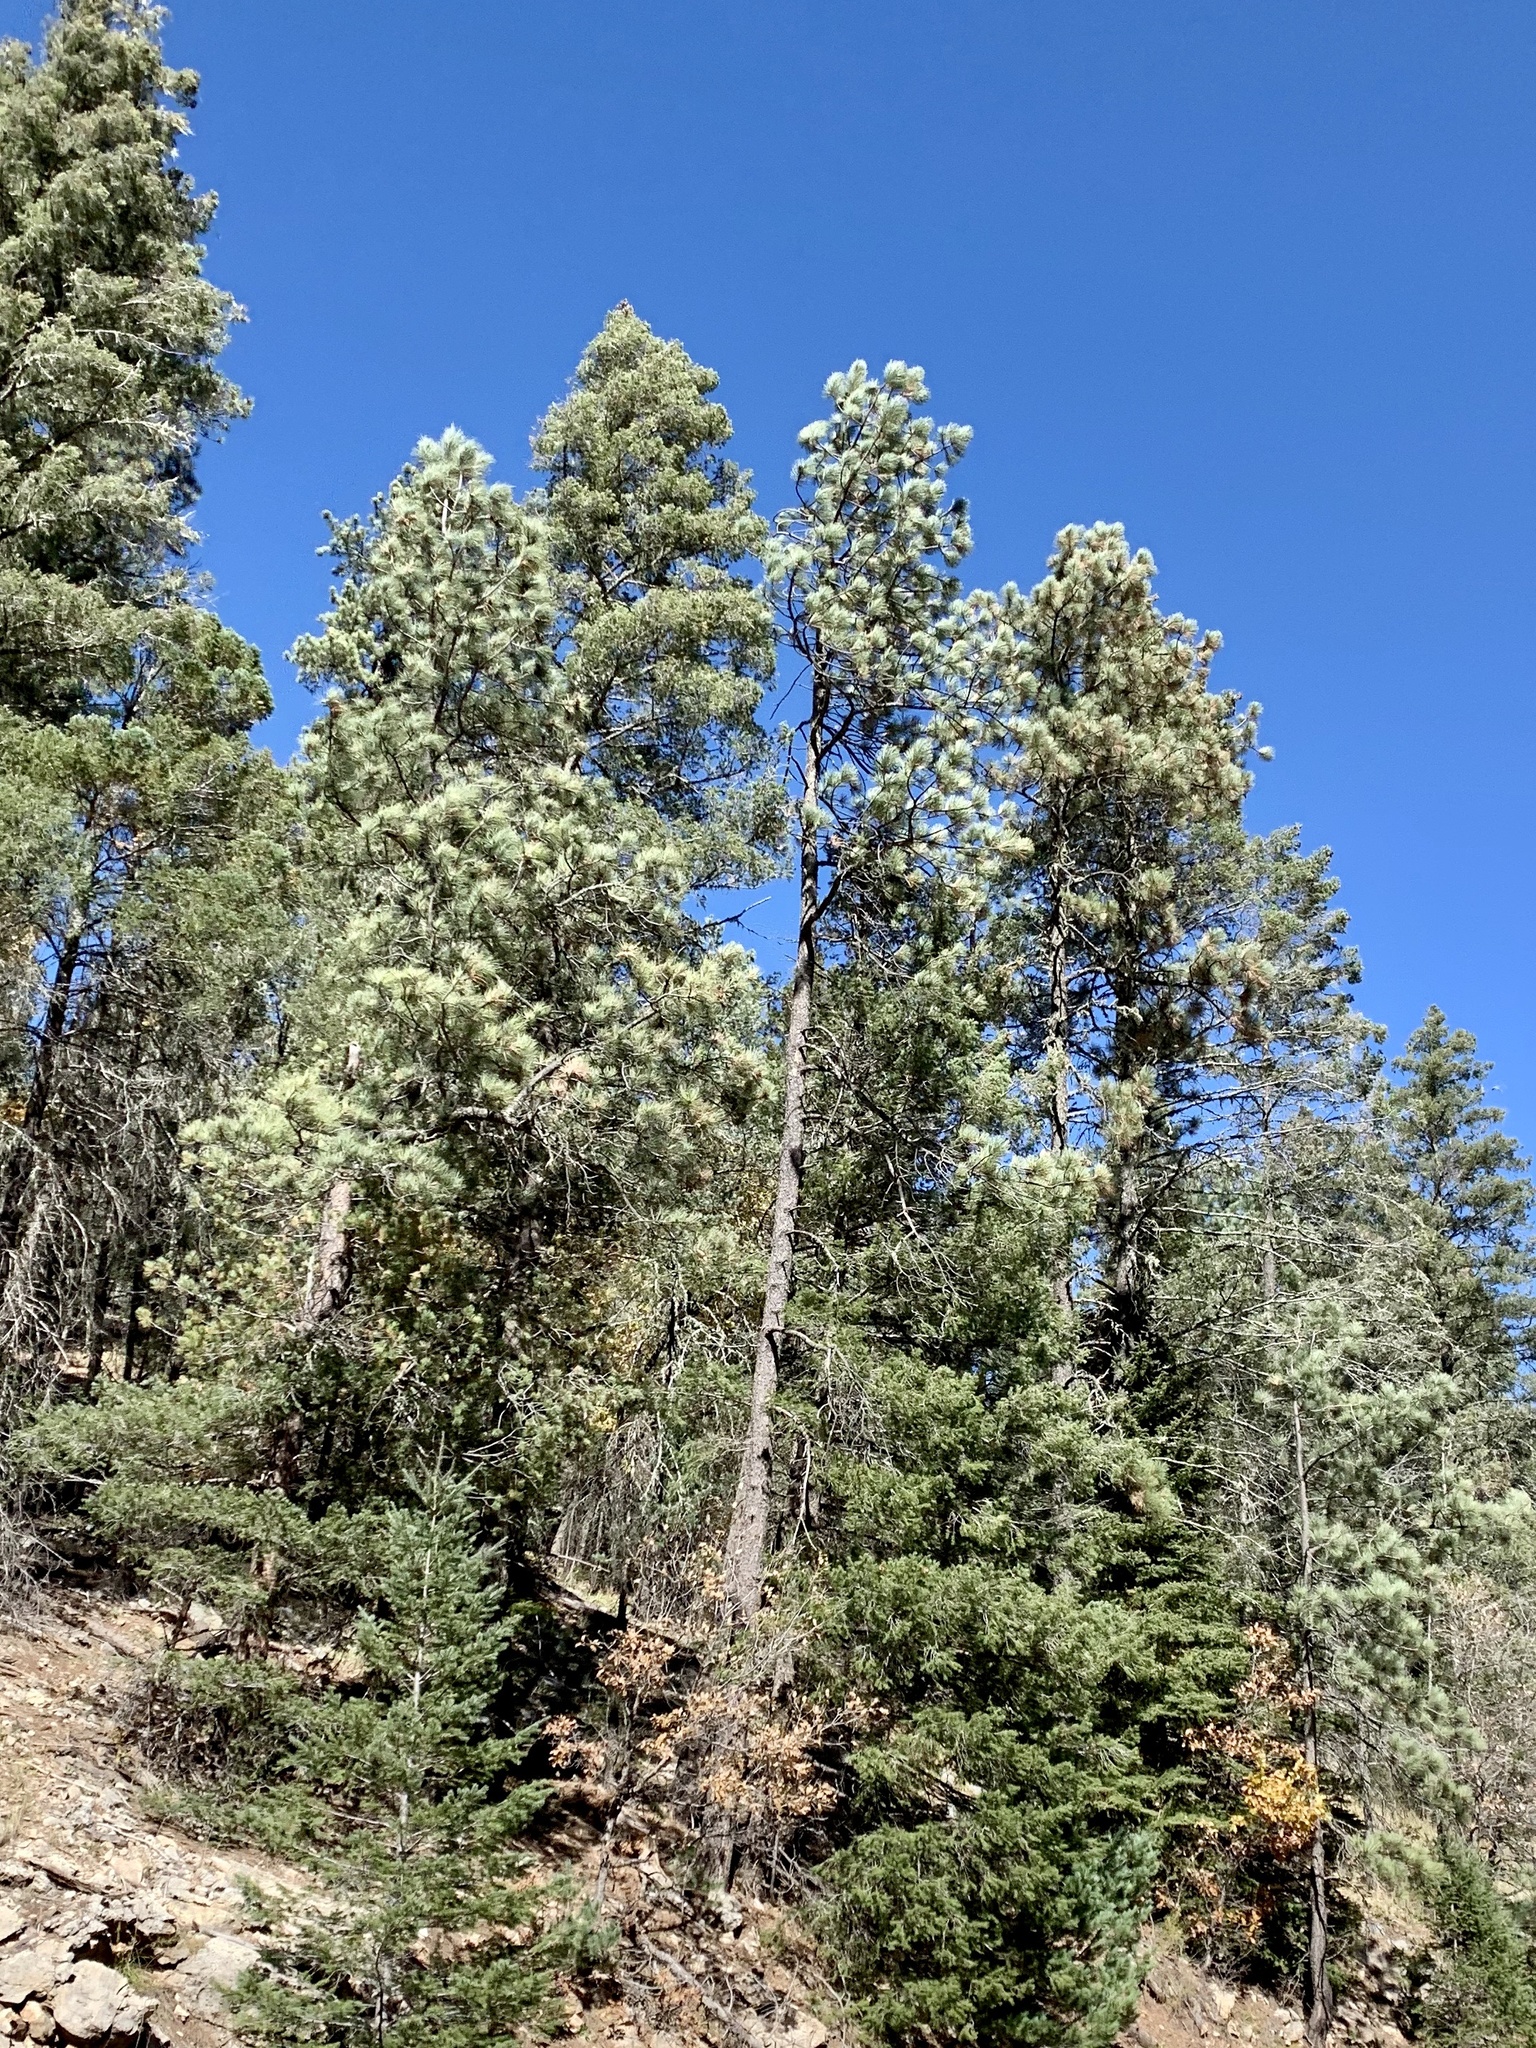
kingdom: Plantae
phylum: Tracheophyta
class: Pinopsida
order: Pinales
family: Pinaceae
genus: Pinus
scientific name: Pinus ponderosa
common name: Western yellow-pine
